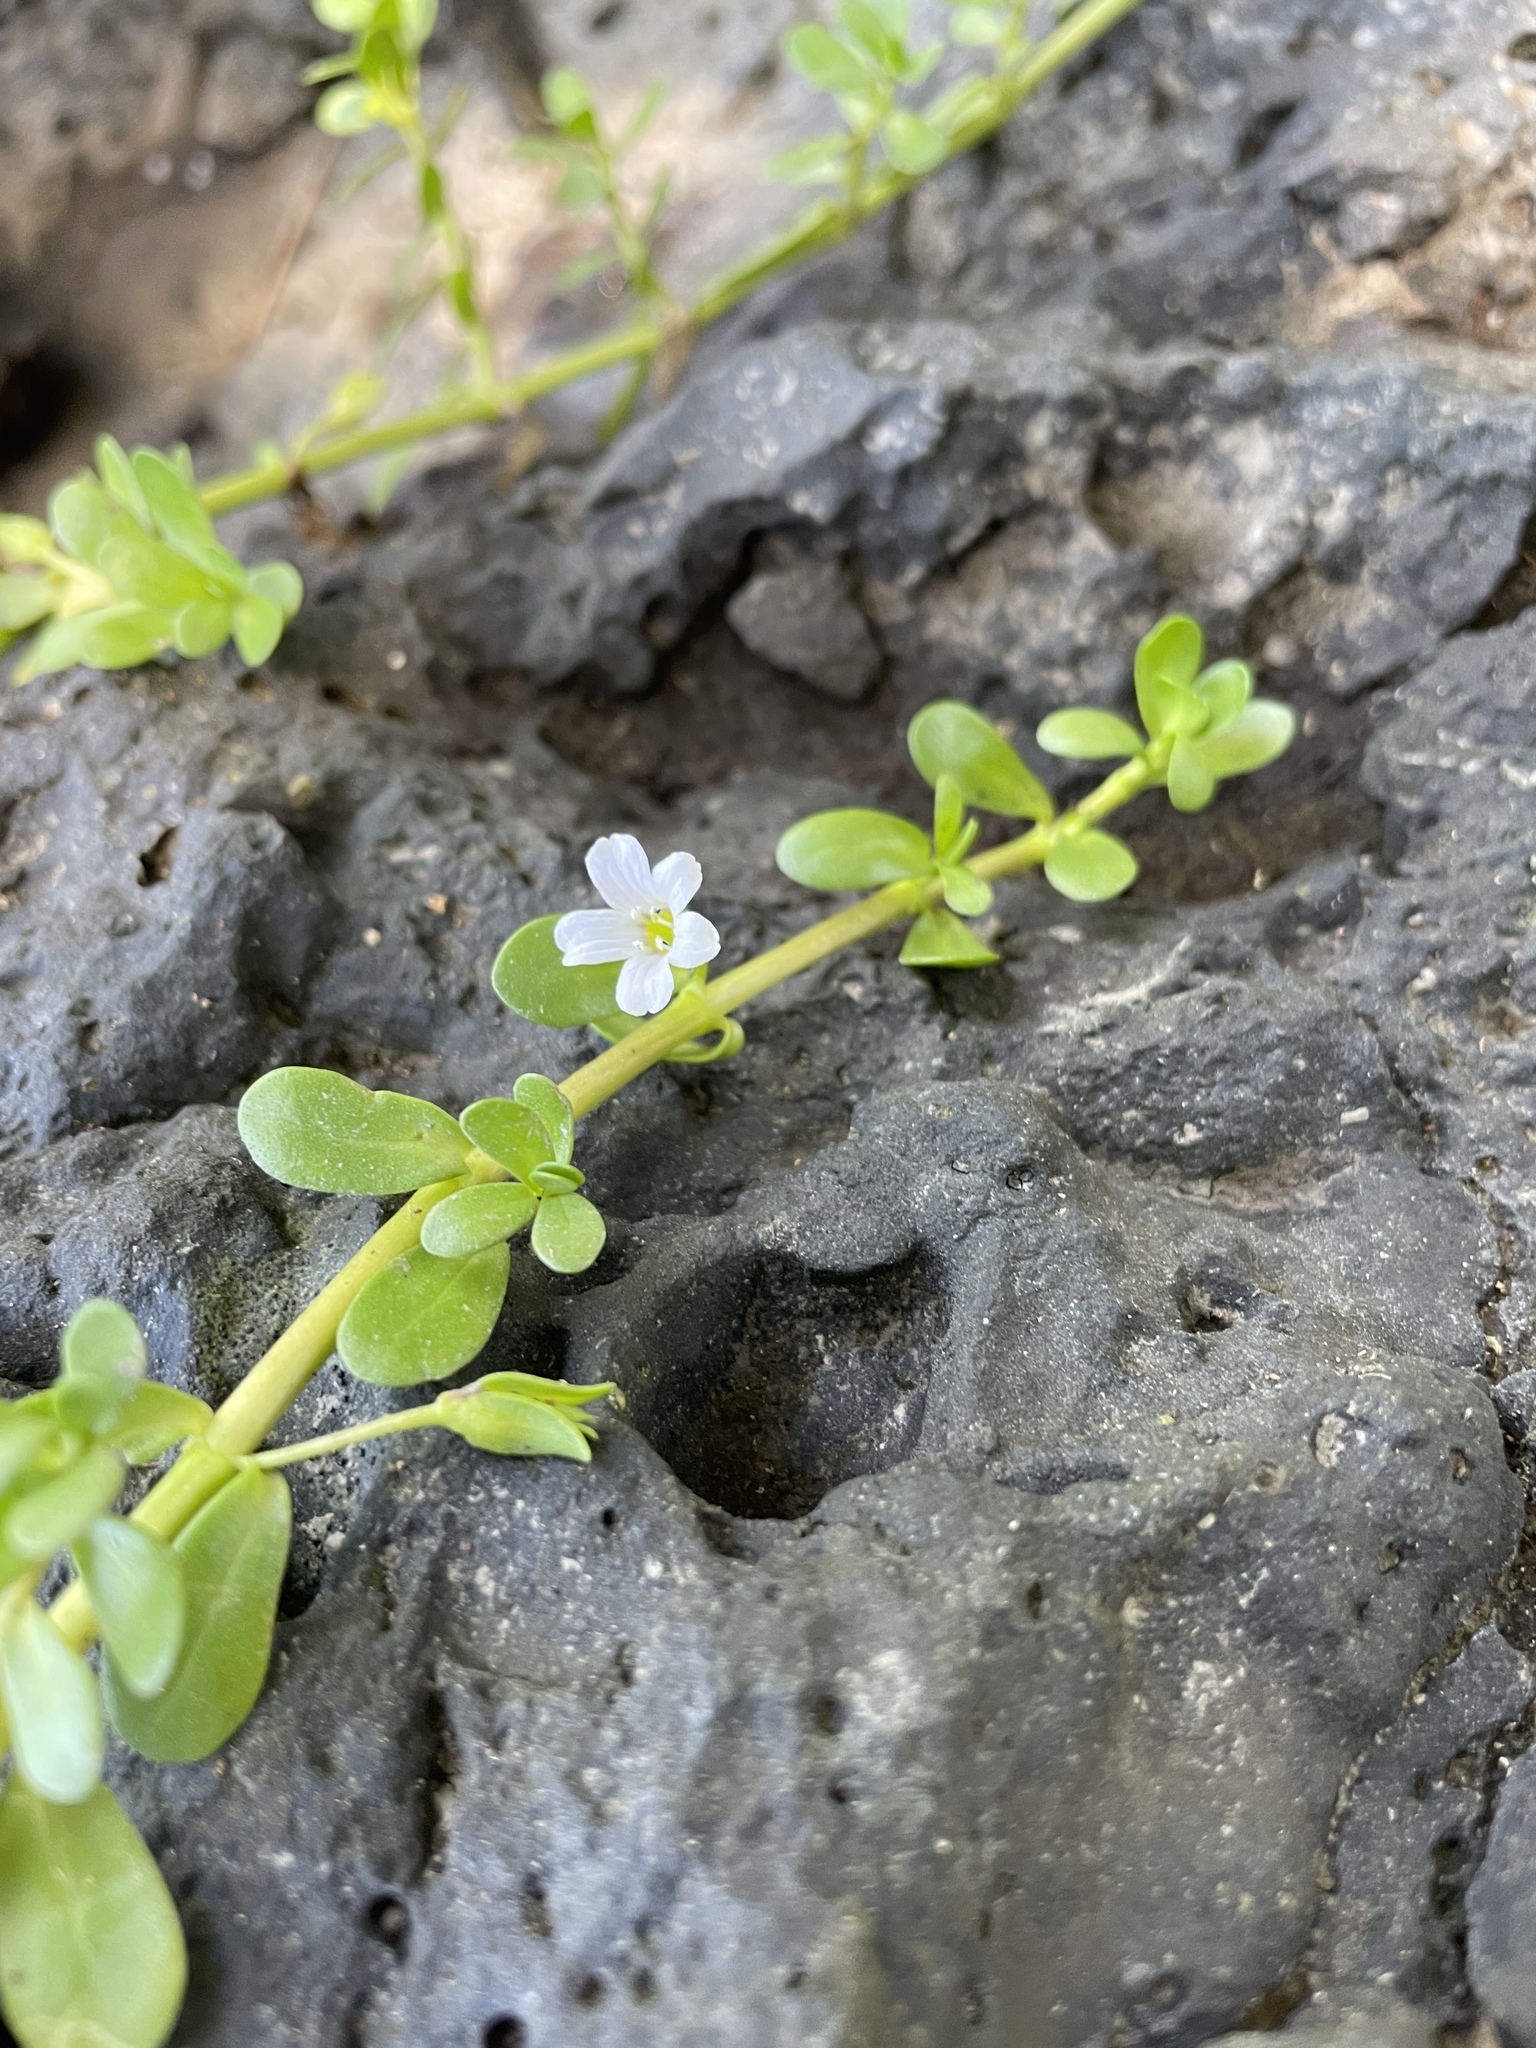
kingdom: Plantae
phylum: Tracheophyta
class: Magnoliopsida
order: Lamiales
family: Plantaginaceae
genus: Bacopa
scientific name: Bacopa monnieri
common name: Indian-pennywort
